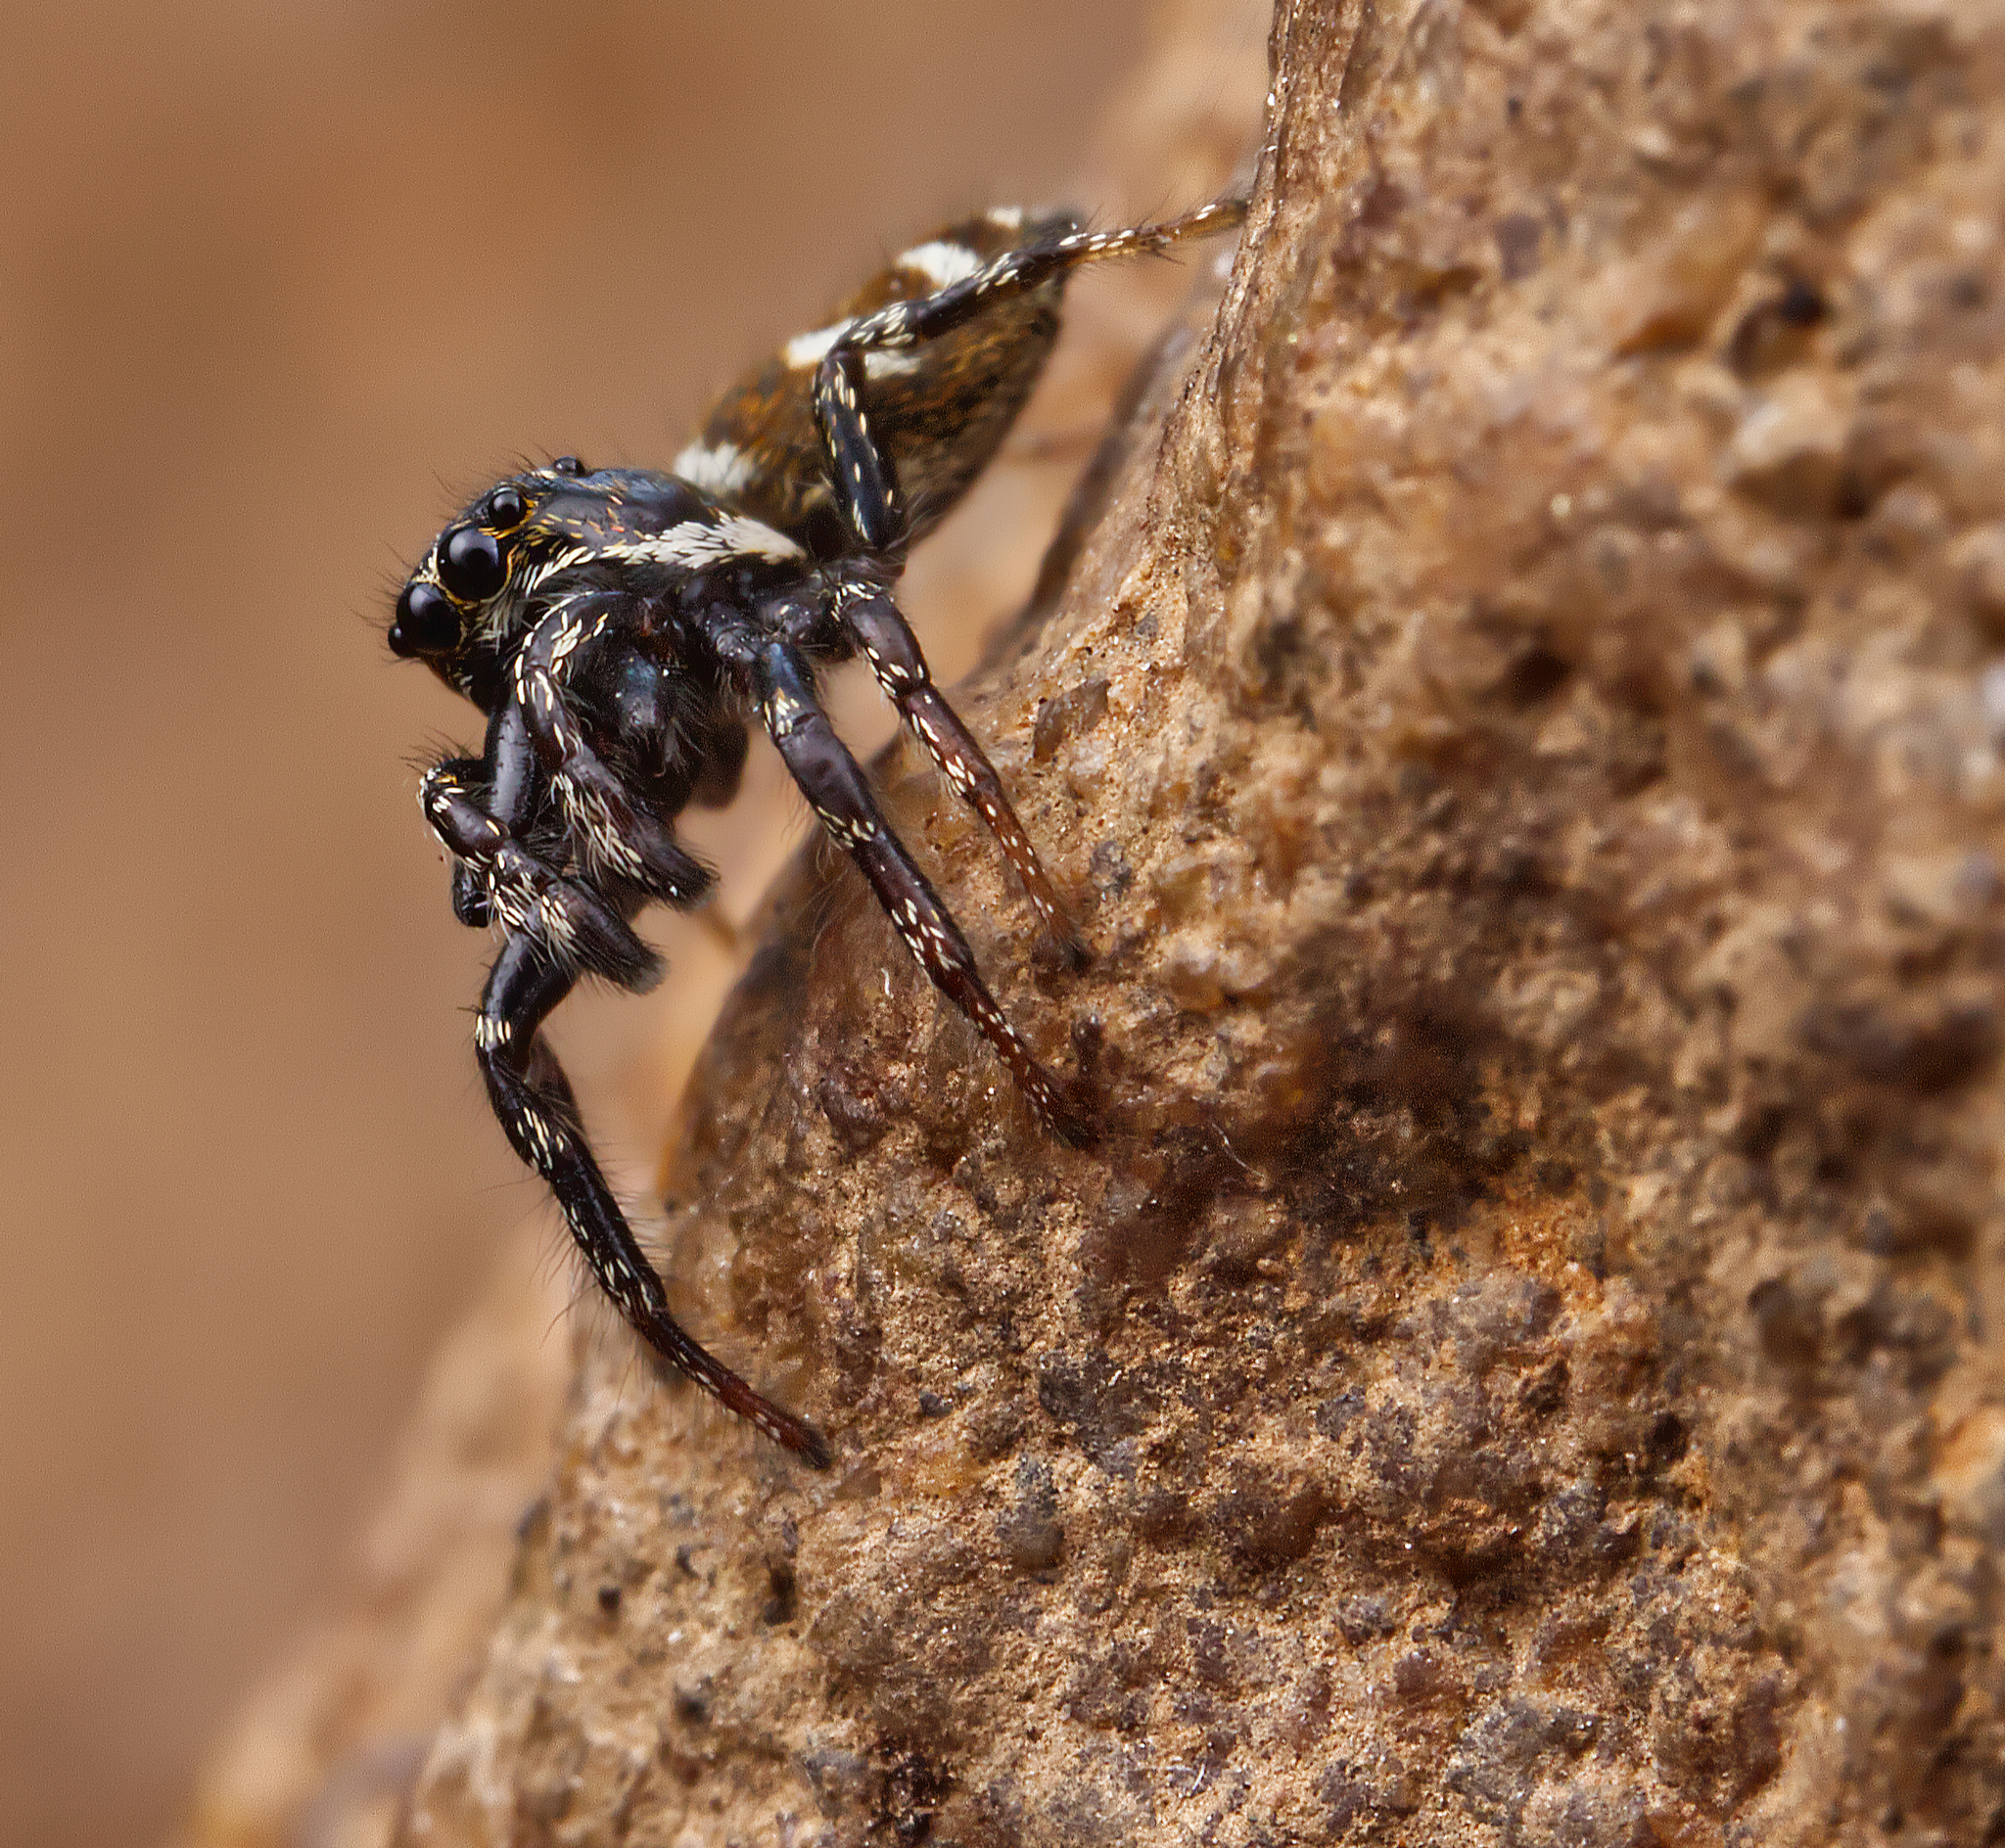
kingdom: Animalia
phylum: Arthropoda
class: Arachnida
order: Araneae
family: Salticidae
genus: Salticus
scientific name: Salticus scenicus
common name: Zebra jumper
